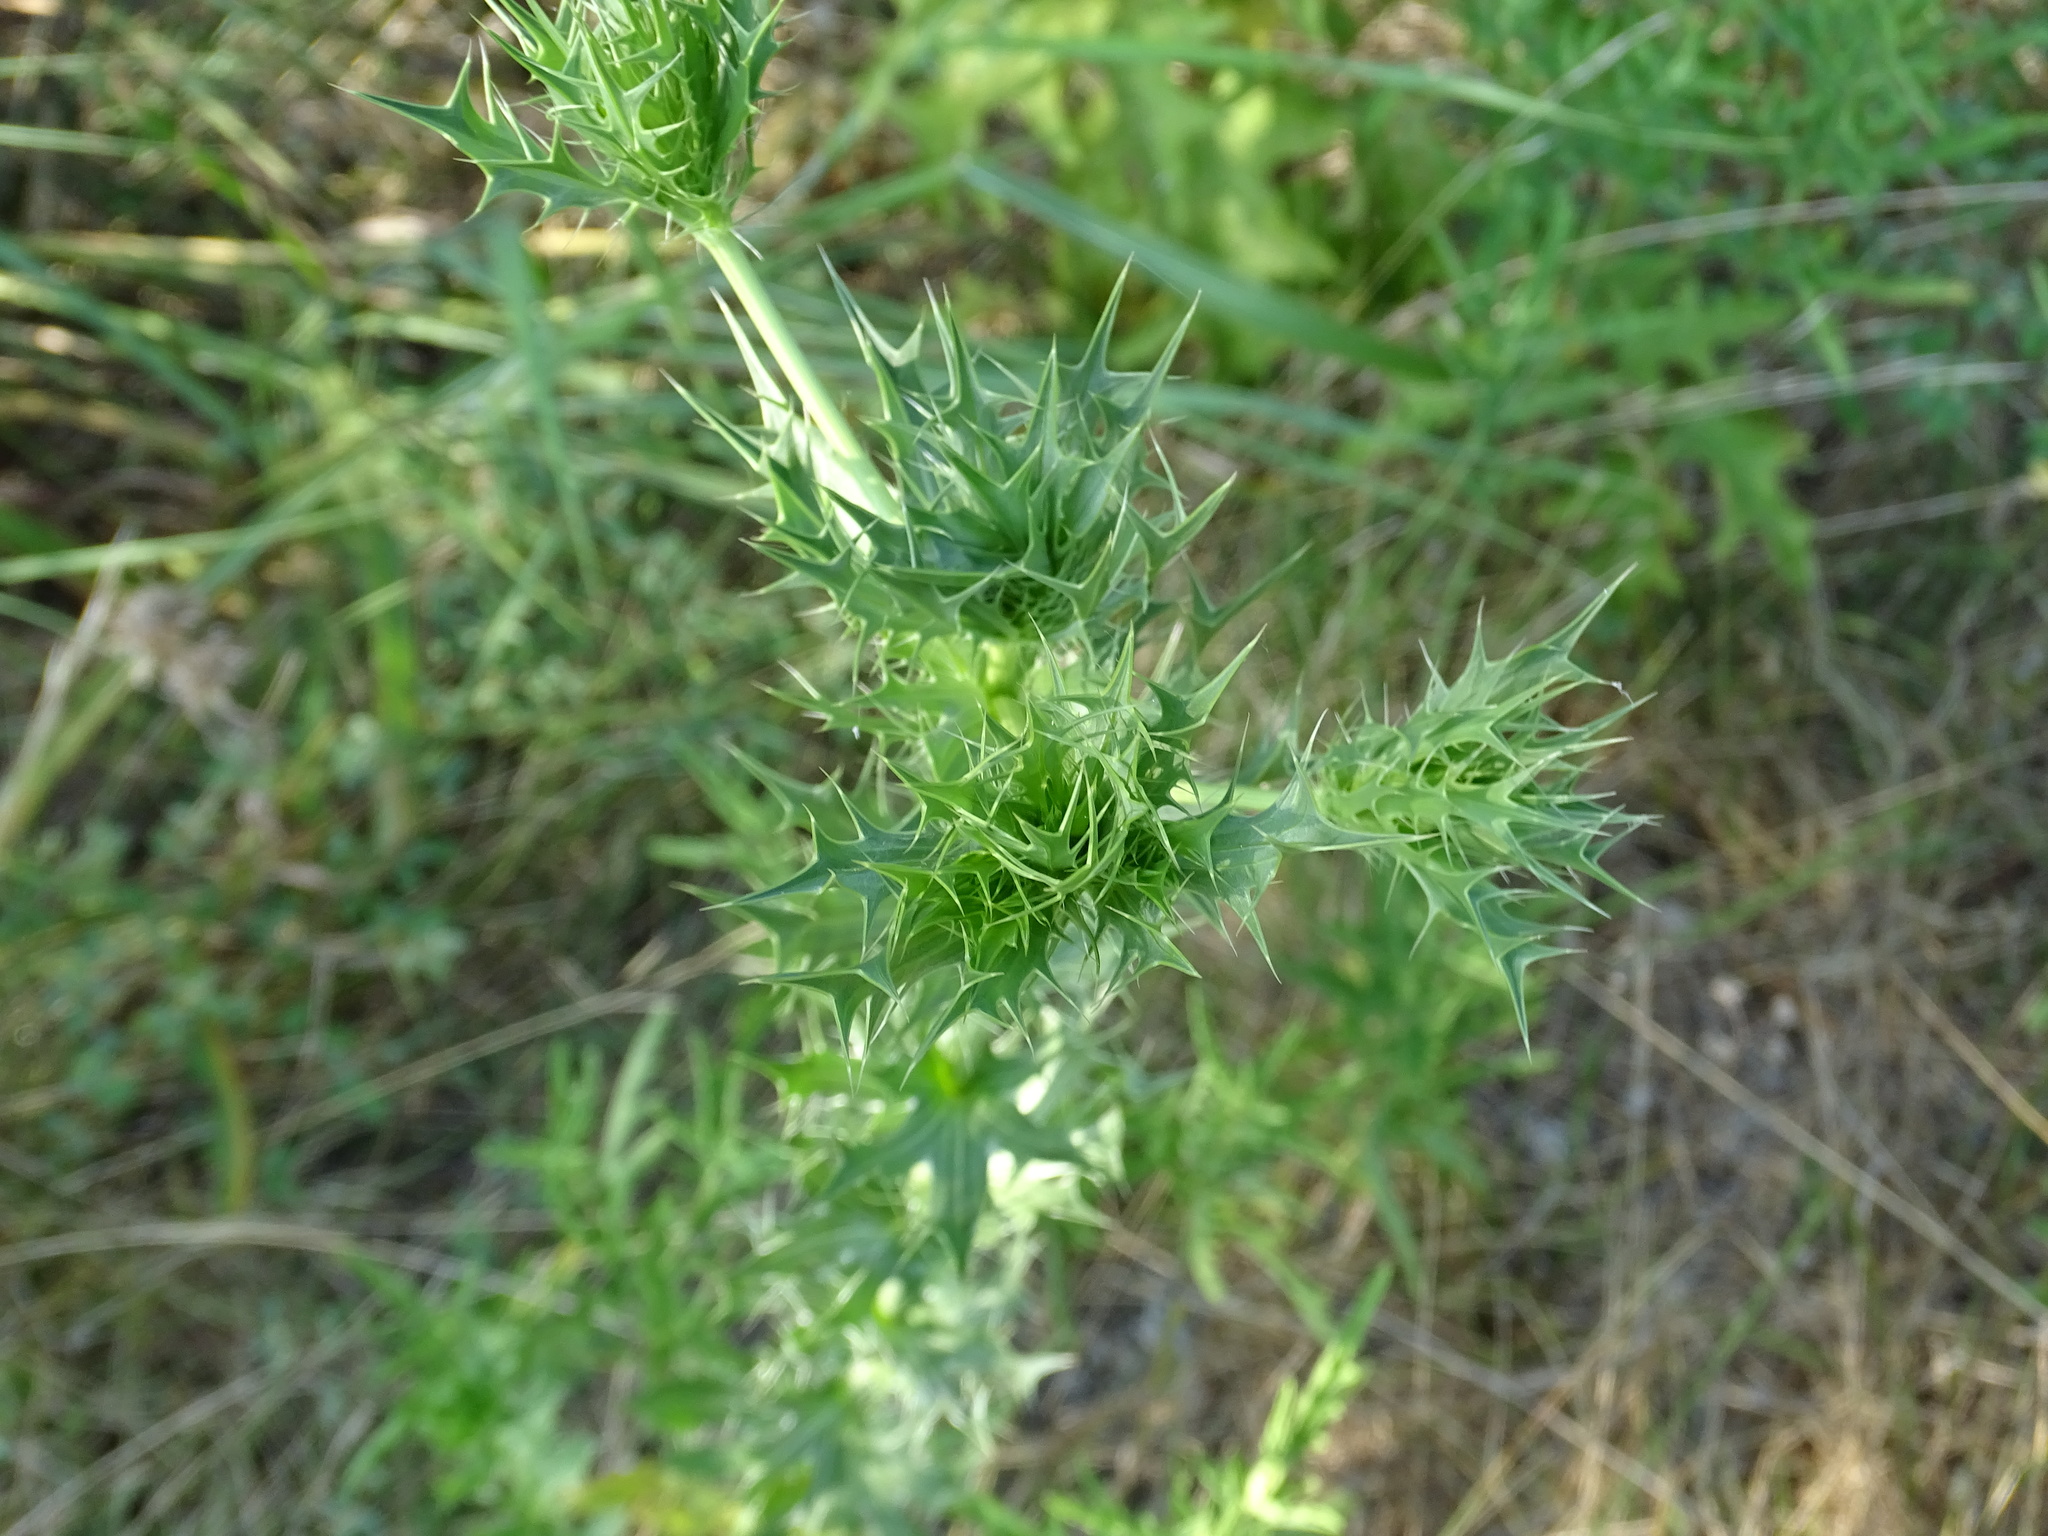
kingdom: Plantae
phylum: Tracheophyta
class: Magnoliopsida
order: Apiales
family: Apiaceae
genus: Eryngium
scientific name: Eryngium leavenworthii
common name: Leavenworth's eryngo
